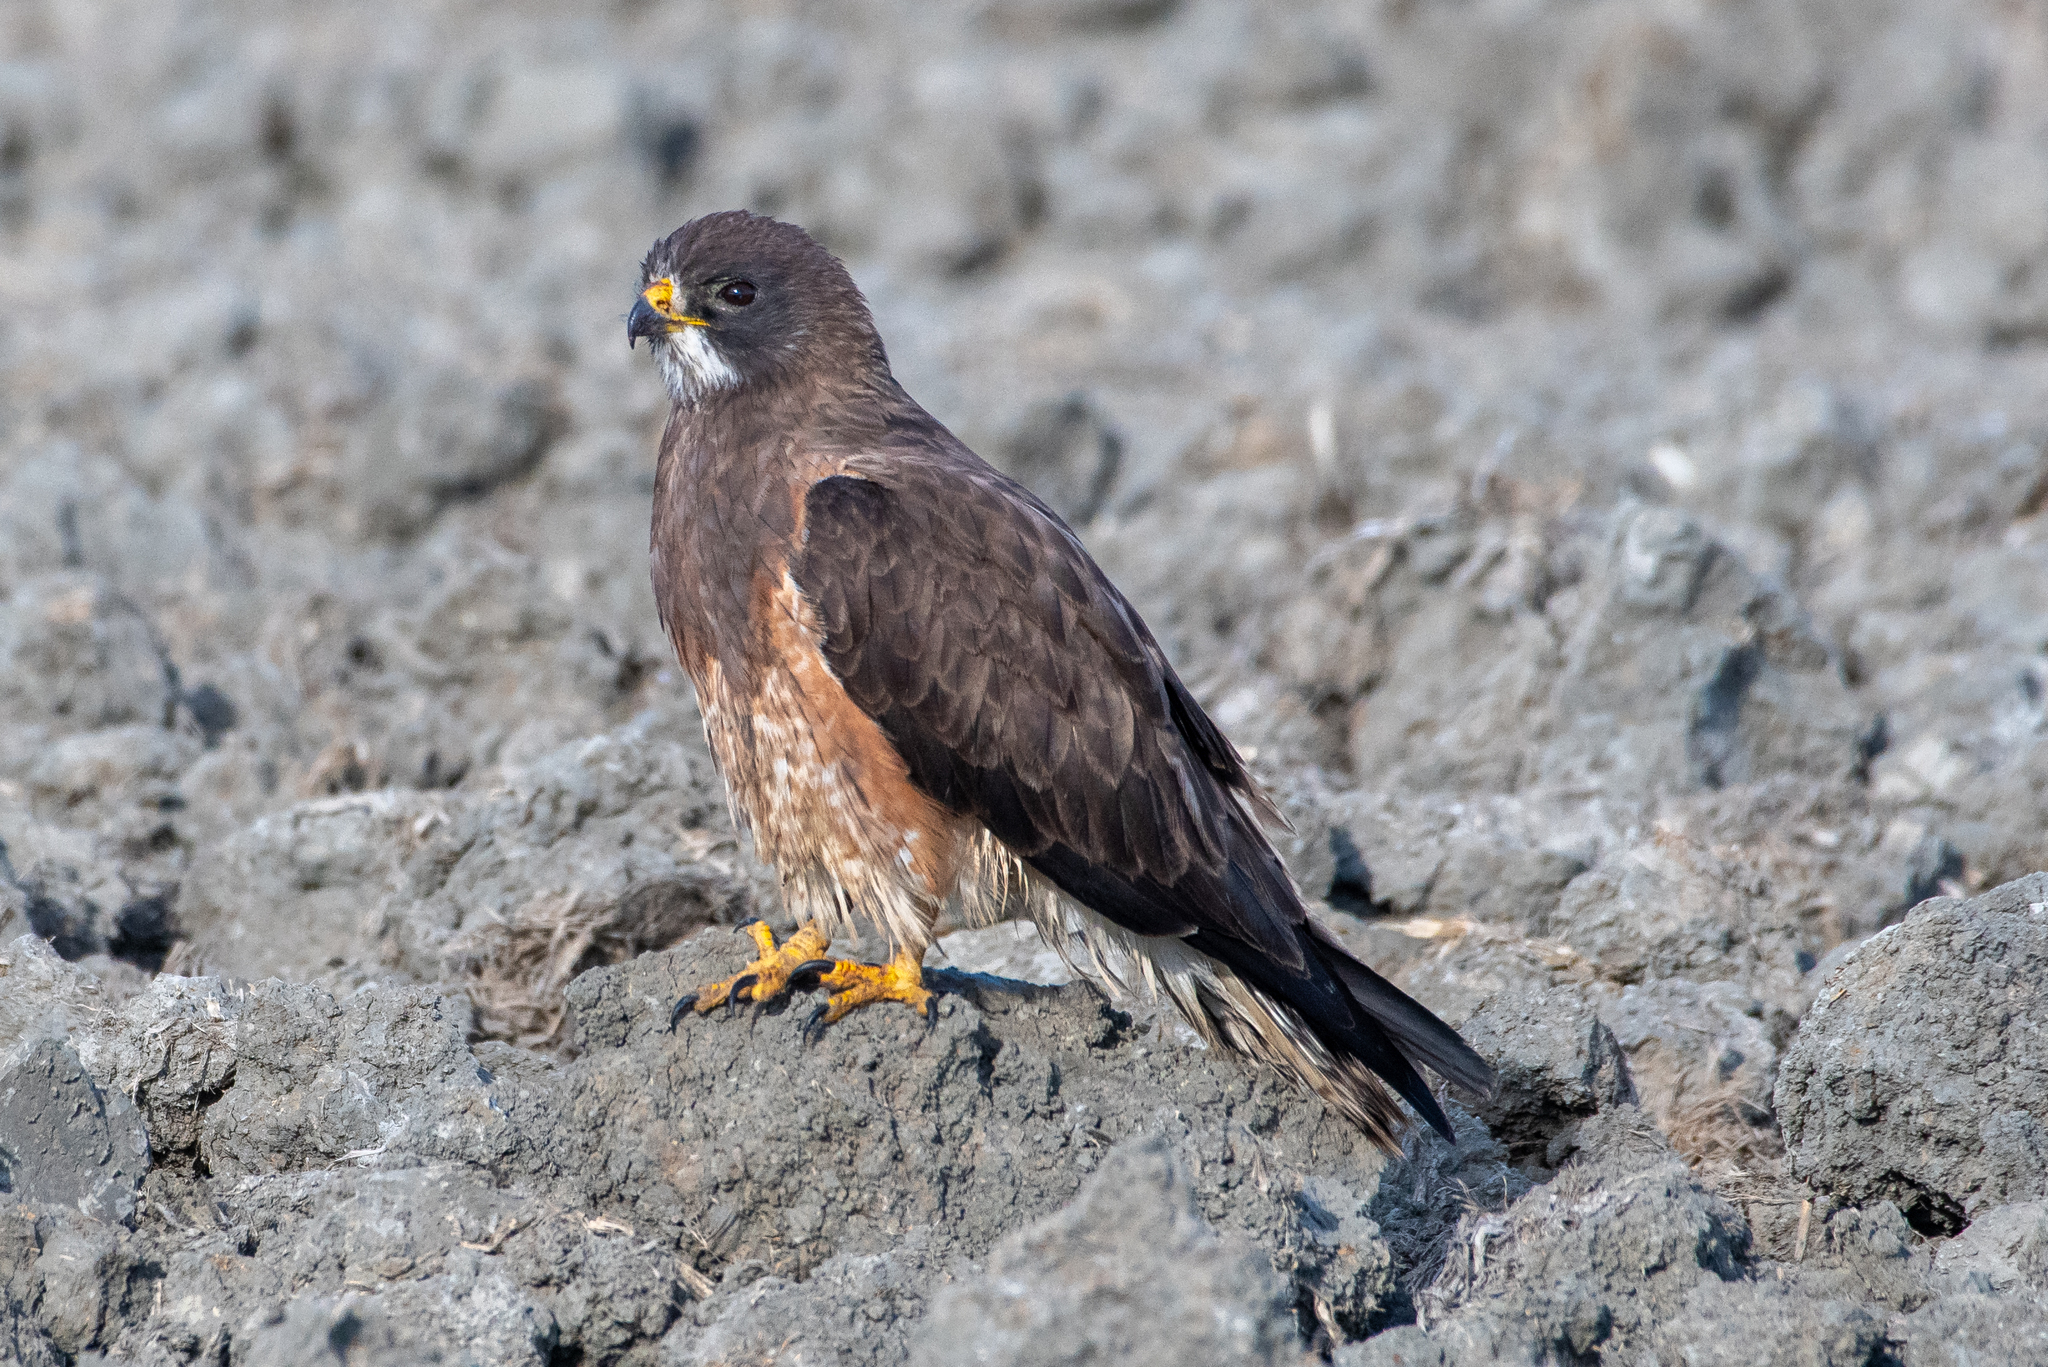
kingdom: Animalia
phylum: Chordata
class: Aves
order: Accipitriformes
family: Accipitridae
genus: Buteo
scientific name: Buteo swainsoni
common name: Swainson's hawk
